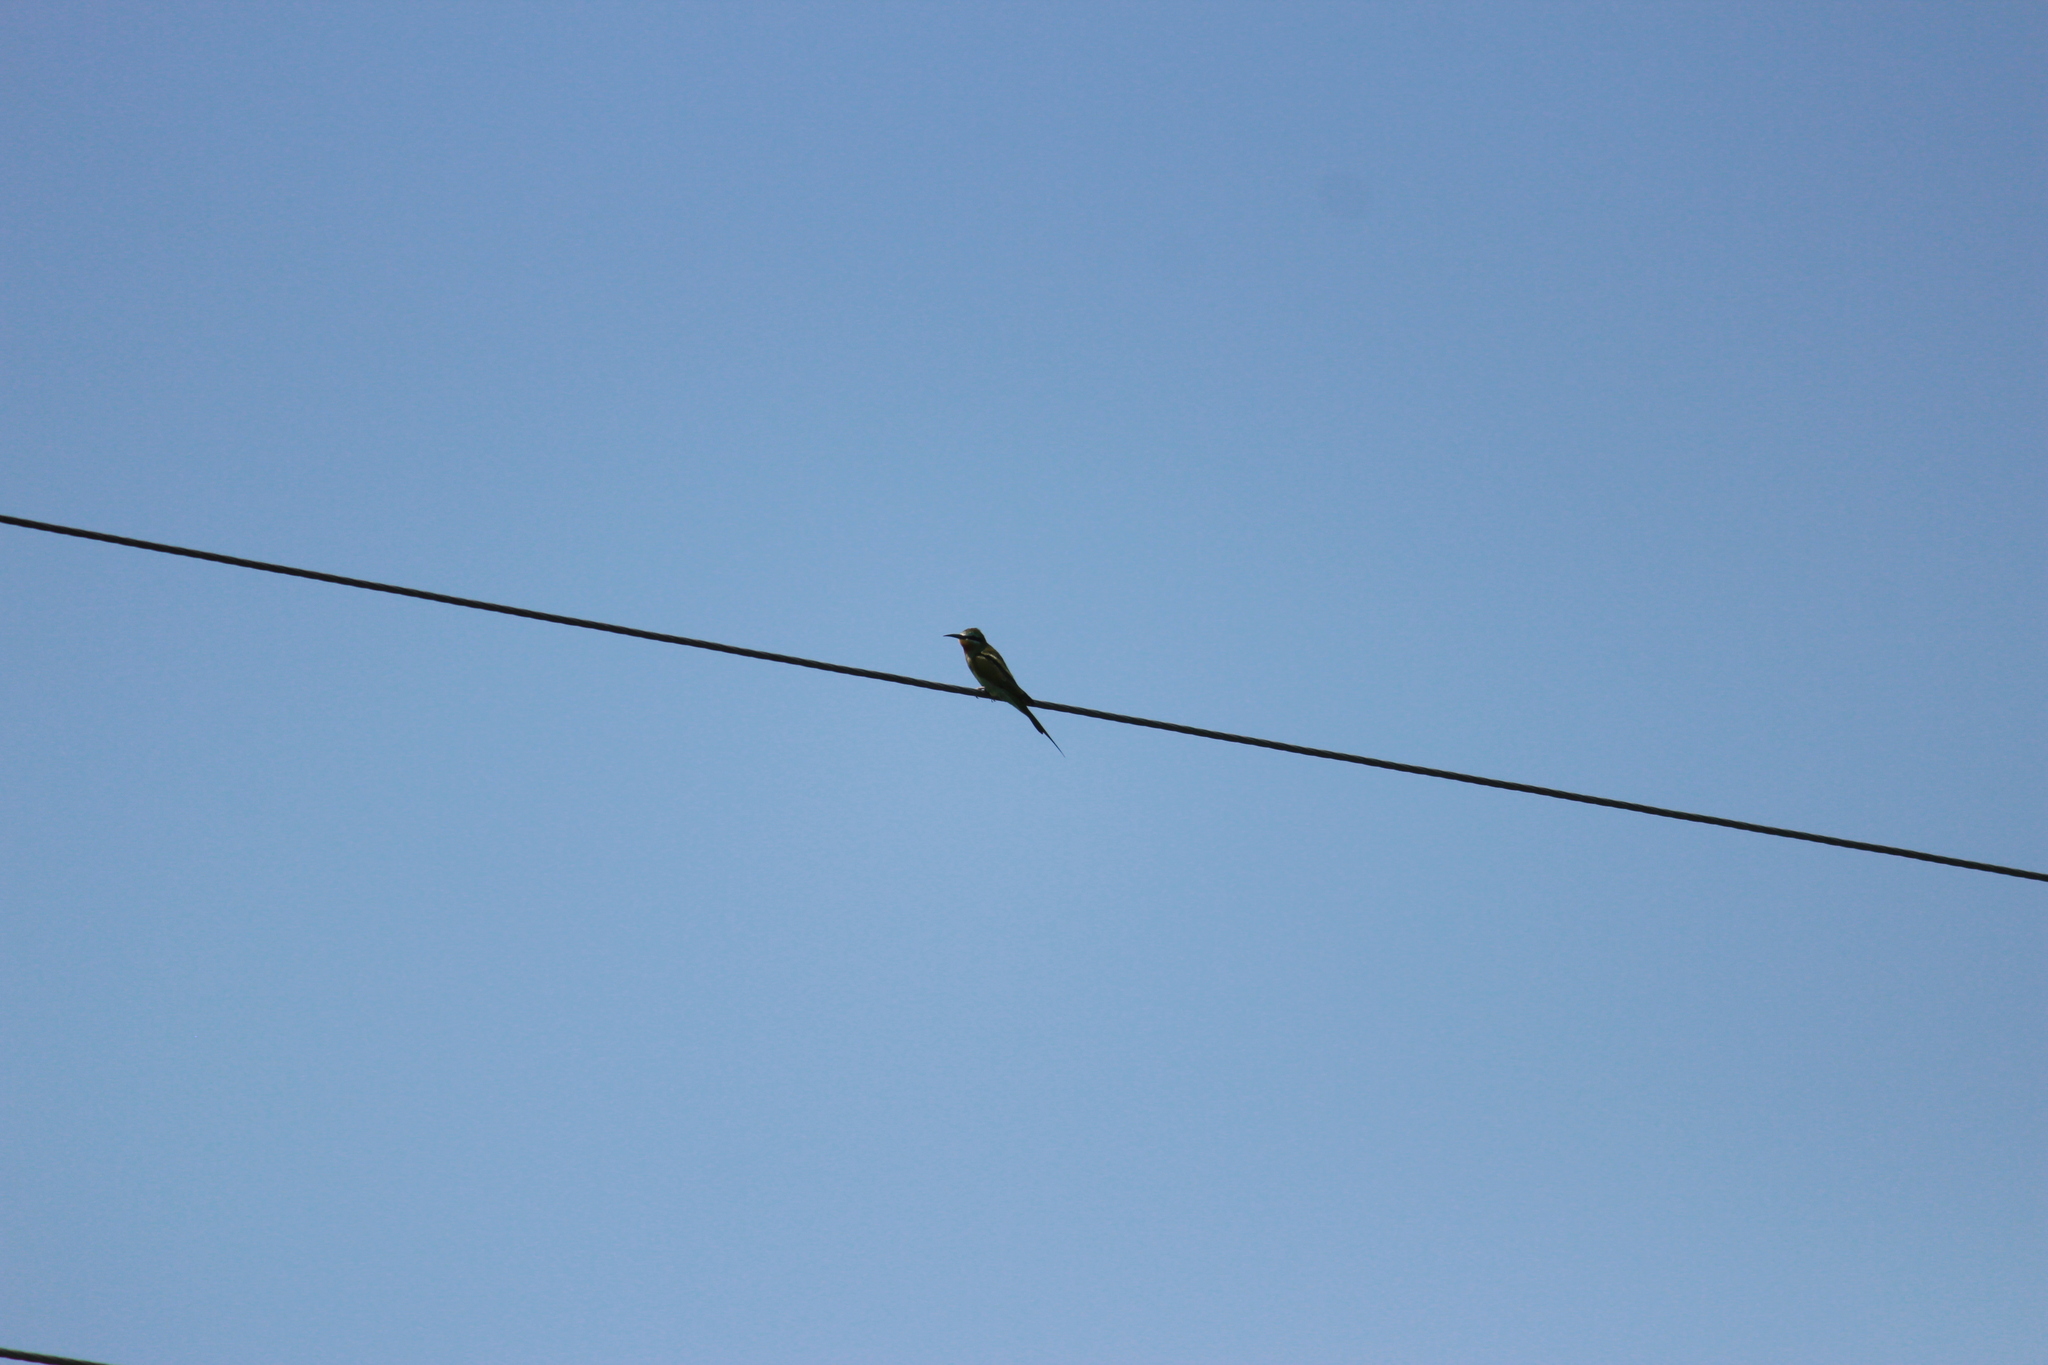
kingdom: Animalia
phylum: Chordata
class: Aves
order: Coraciiformes
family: Meropidae
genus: Merops
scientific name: Merops persicus
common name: Blue-cheeked bee-eater
